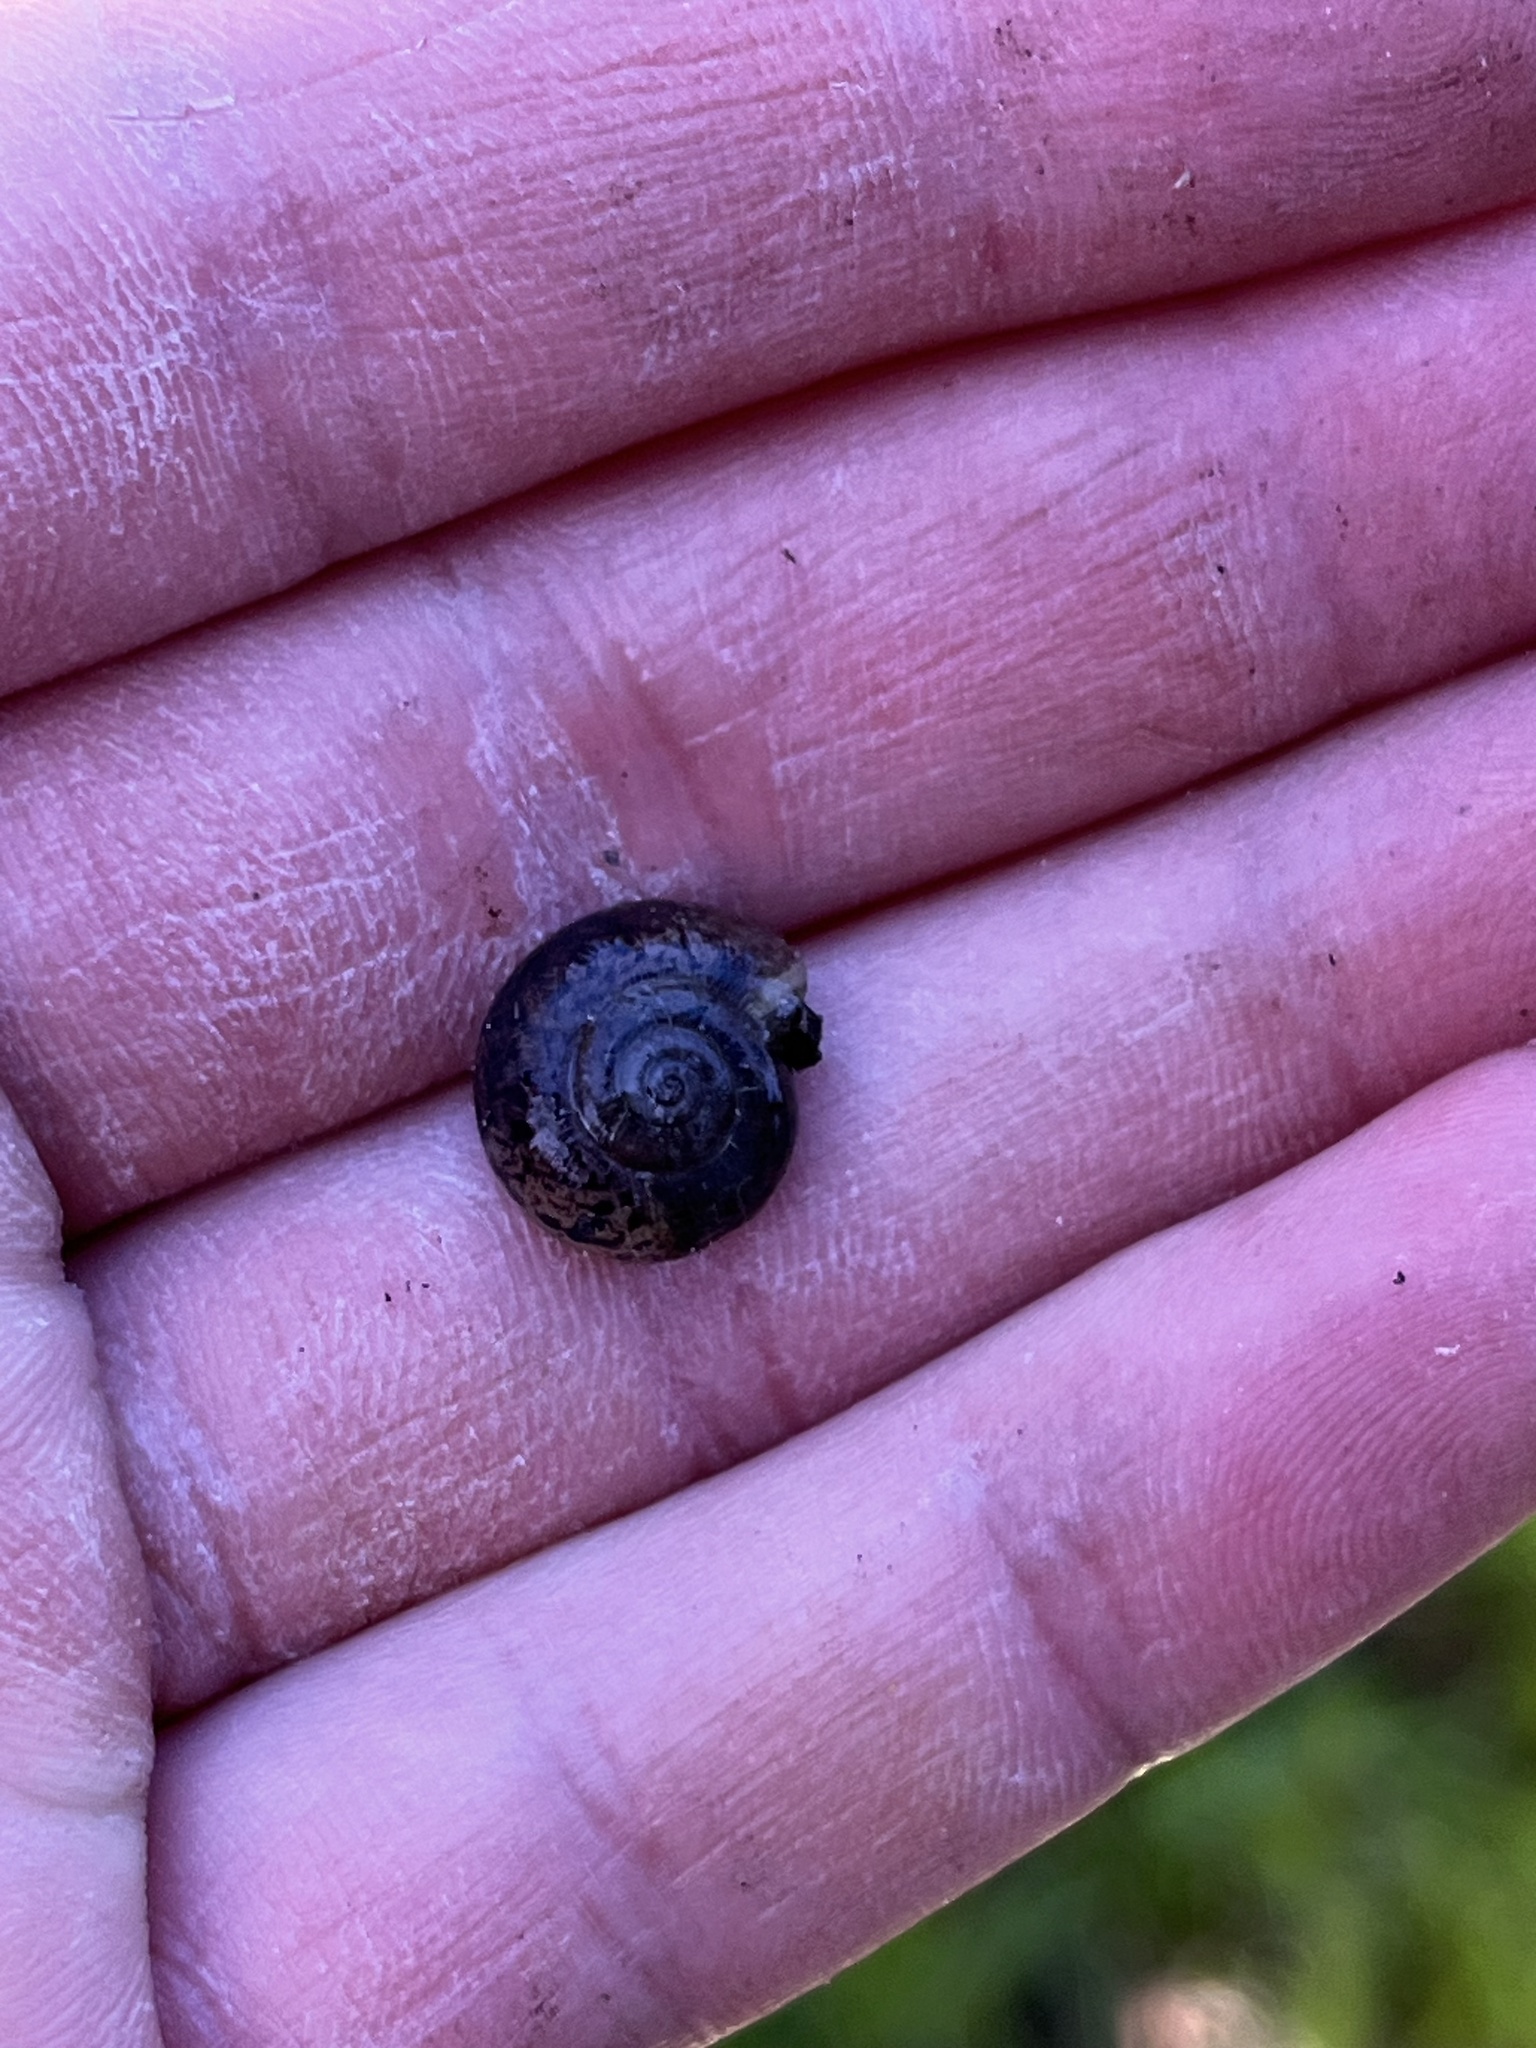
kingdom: Animalia
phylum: Mollusca
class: Gastropoda
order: Stylommatophora
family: Haplotrematidae
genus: Haplotrema
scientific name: Haplotrema minimum
